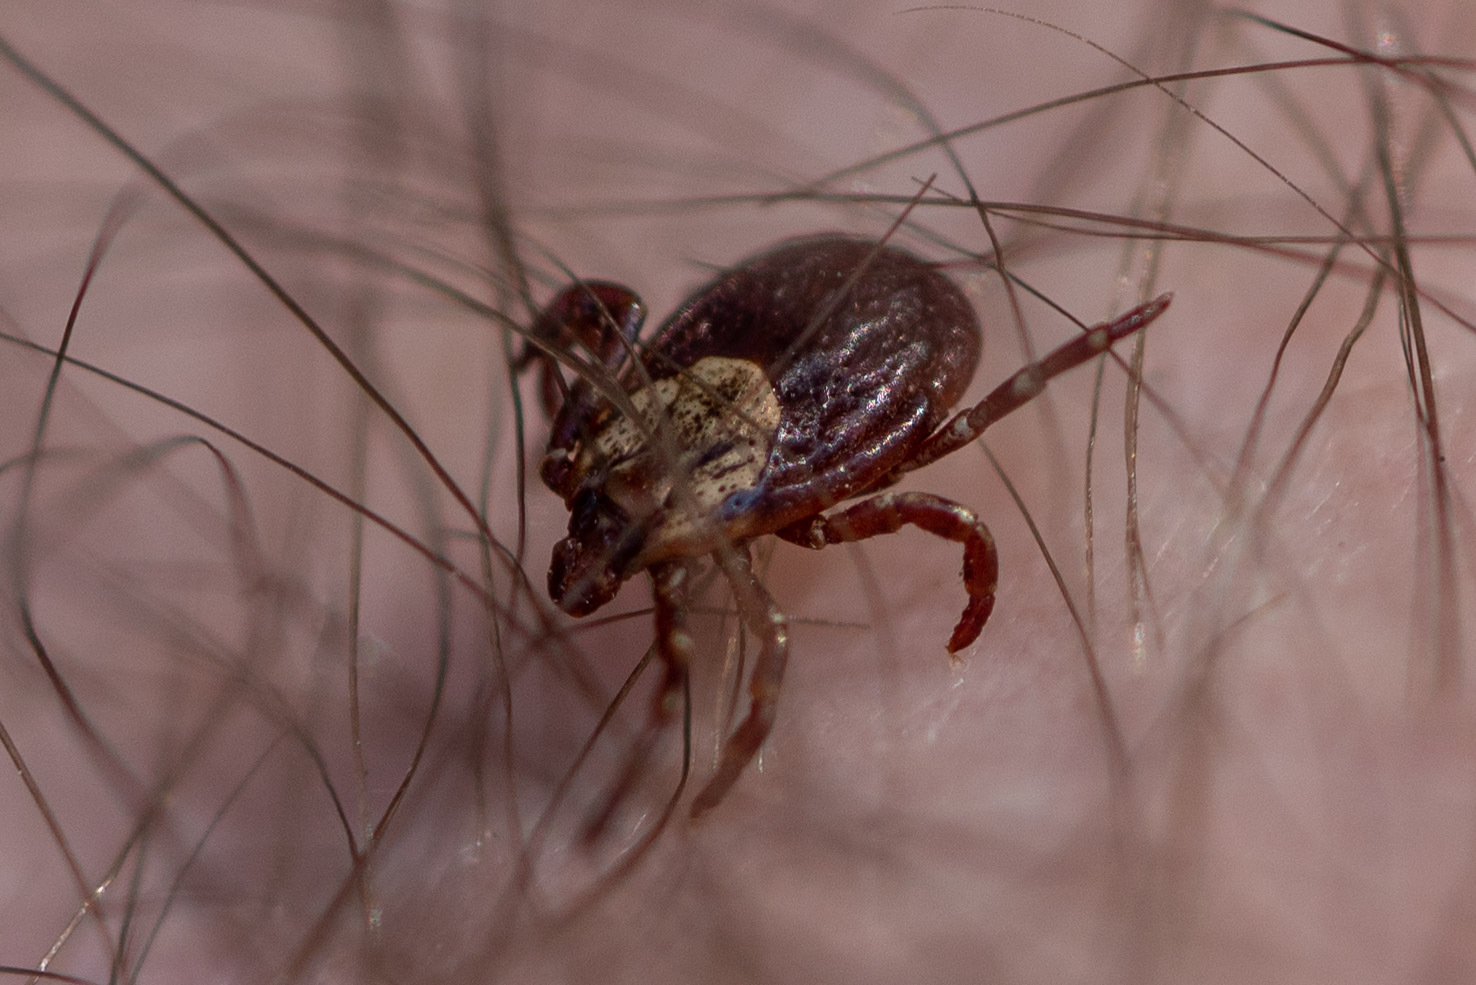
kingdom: Animalia
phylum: Arthropoda
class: Arachnida
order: Ixodida
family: Ixodidae
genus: Dermacentor
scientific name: Dermacentor variabilis
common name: American dog tick
